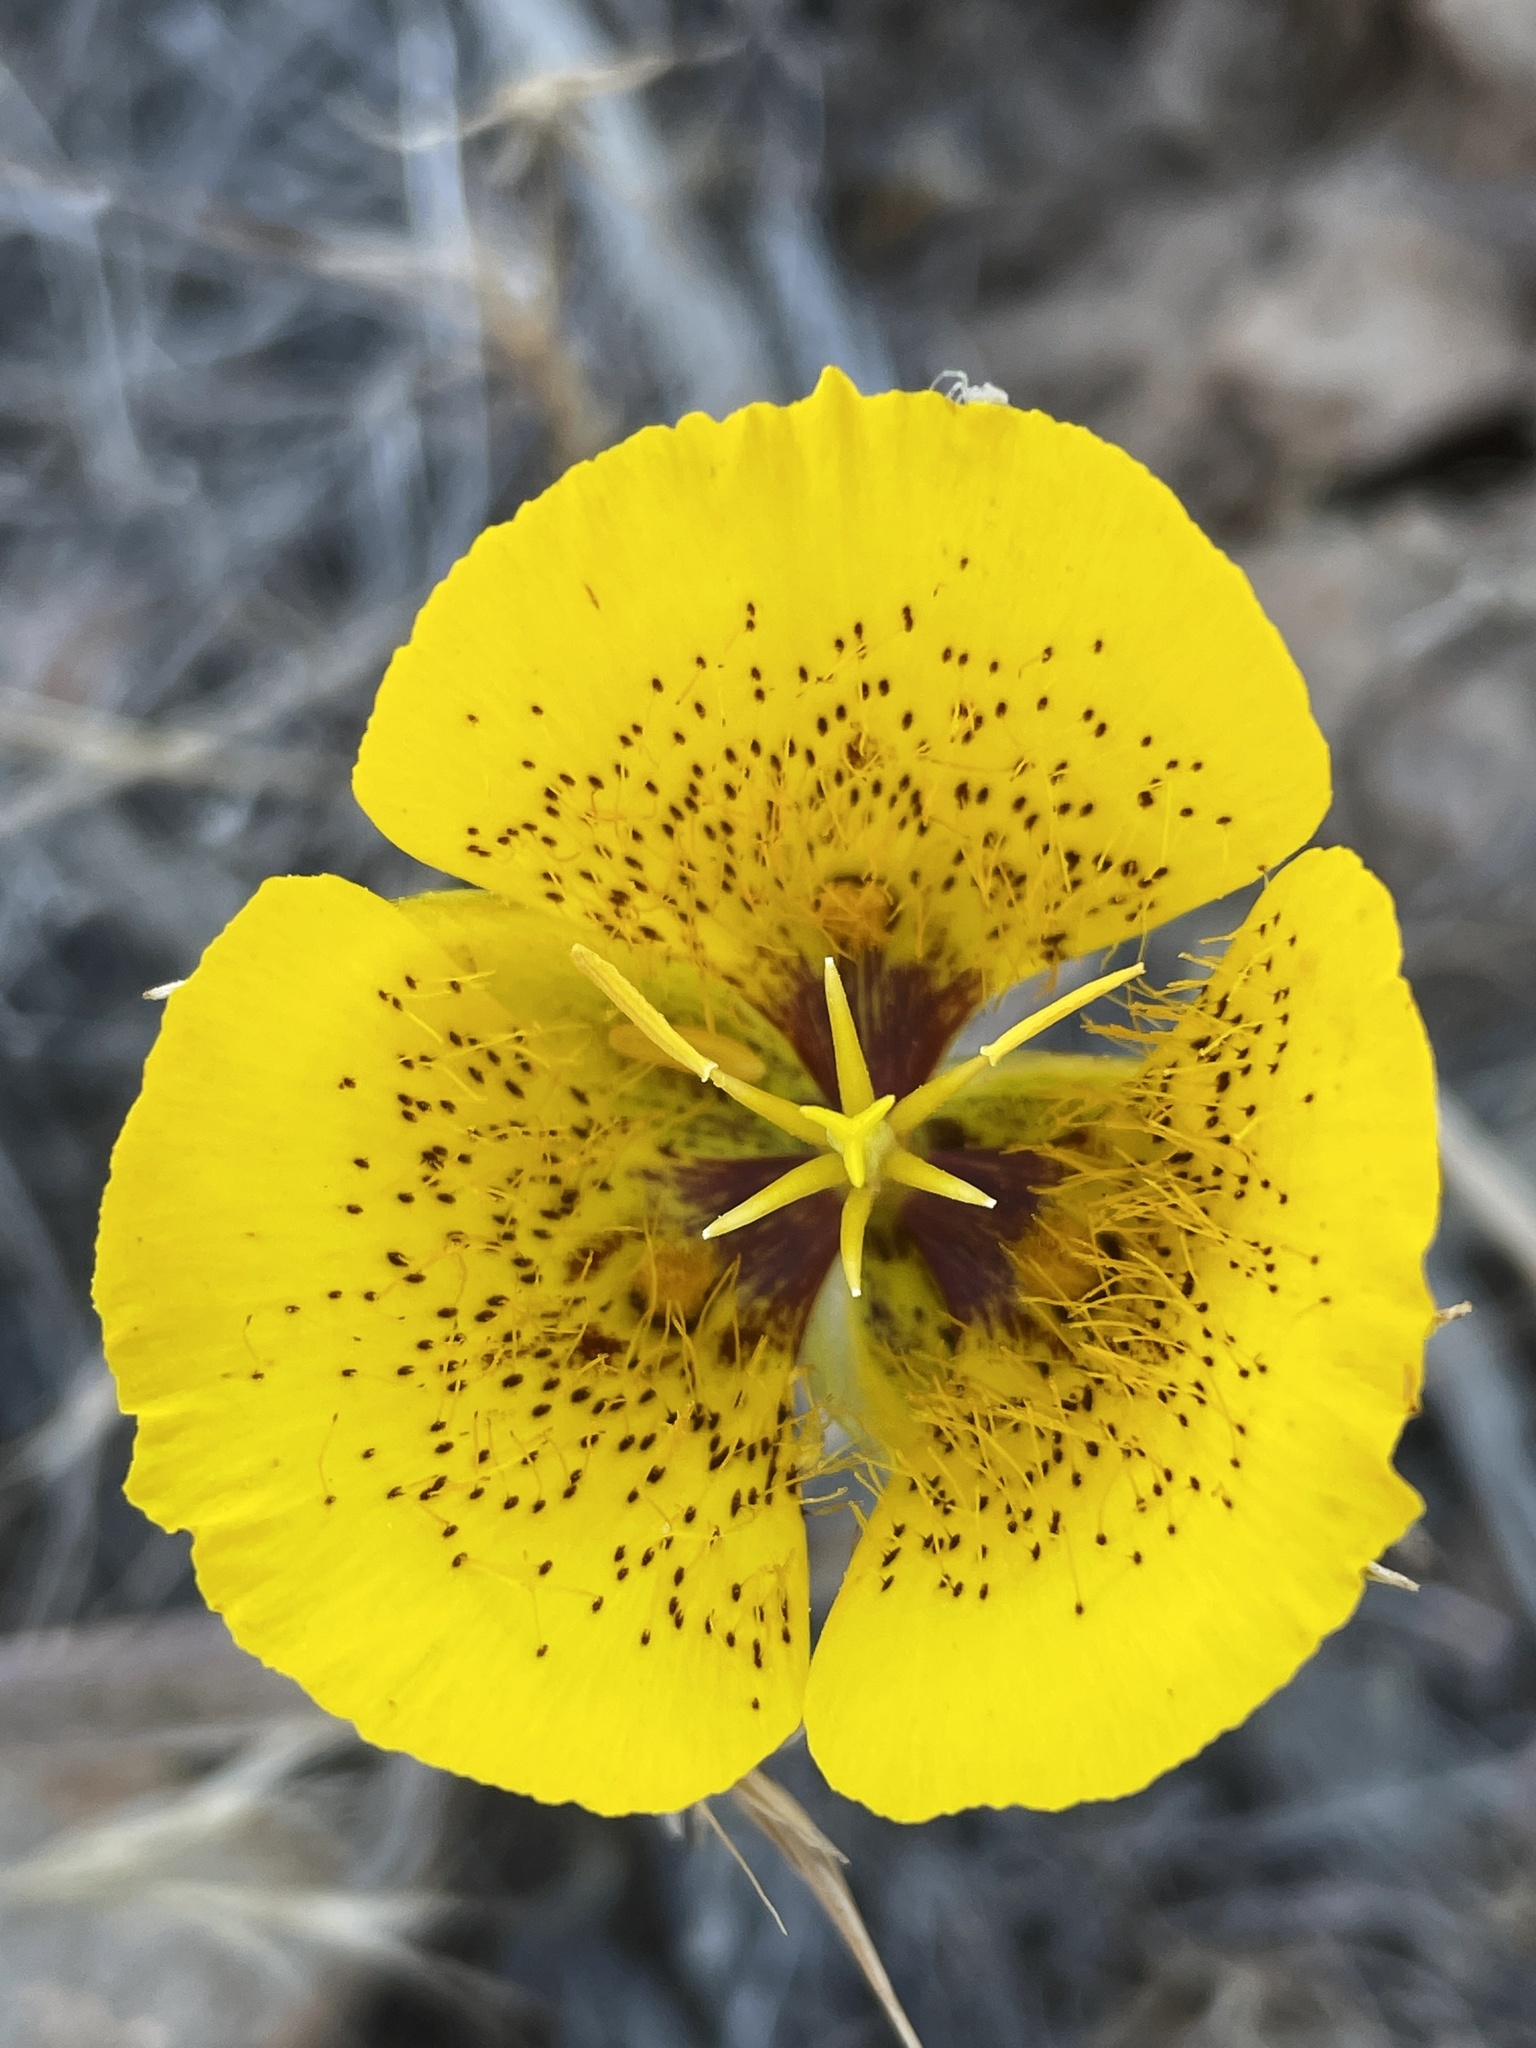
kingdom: Plantae
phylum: Tracheophyta
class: Liliopsida
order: Liliales
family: Liliaceae
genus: Calochortus
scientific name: Calochortus weedii
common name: Weed's mariposa-lily
